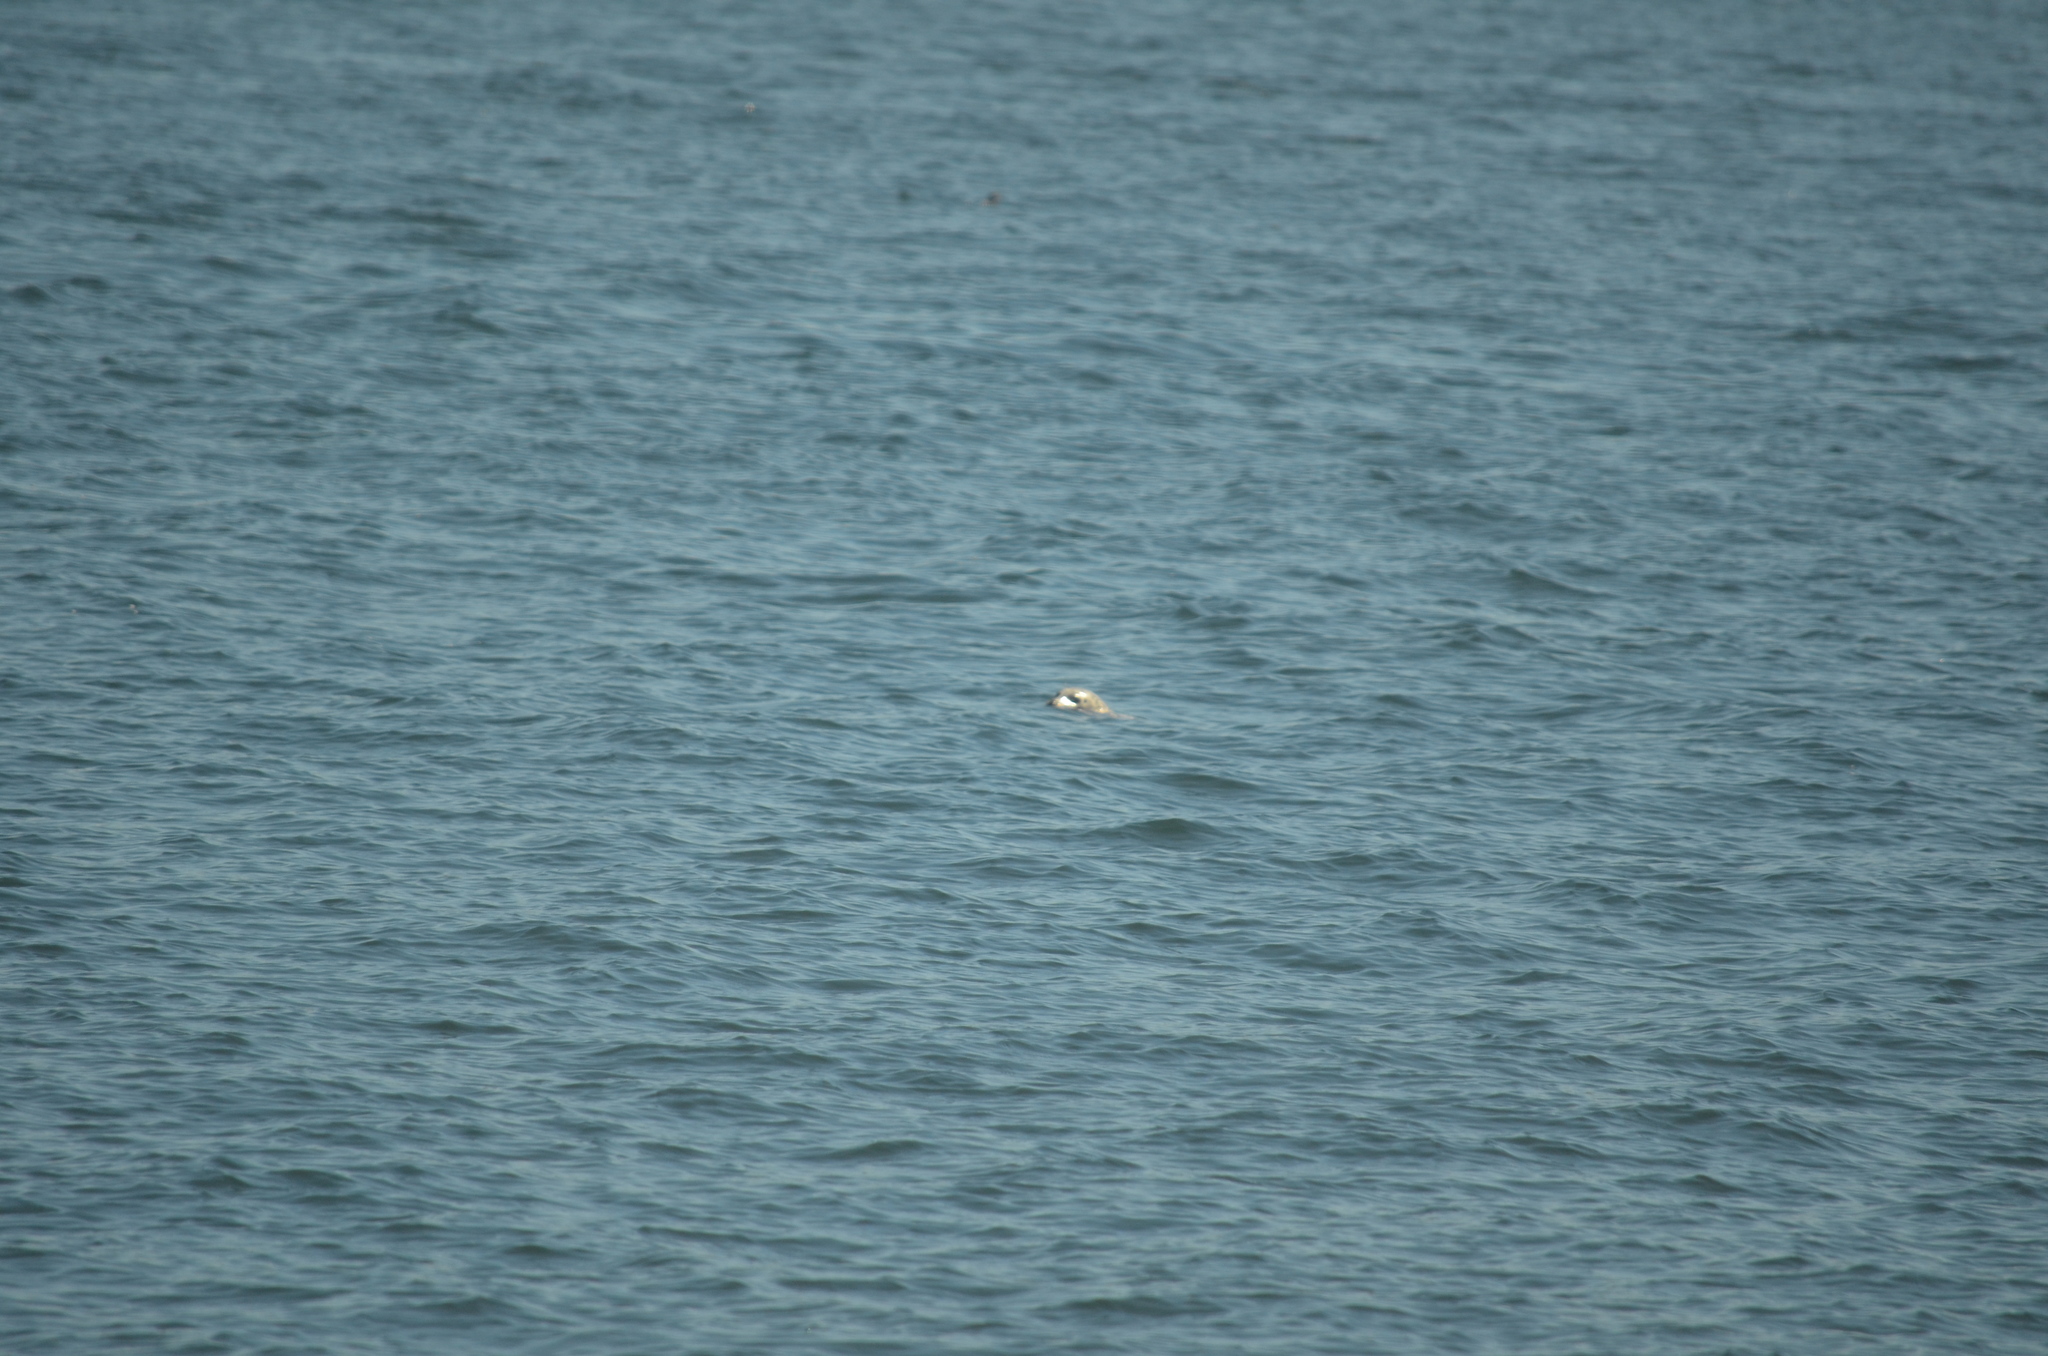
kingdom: Animalia
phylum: Chordata
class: Mammalia
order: Carnivora
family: Phocidae
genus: Phoca
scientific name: Phoca vitulina
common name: Harbor seal
